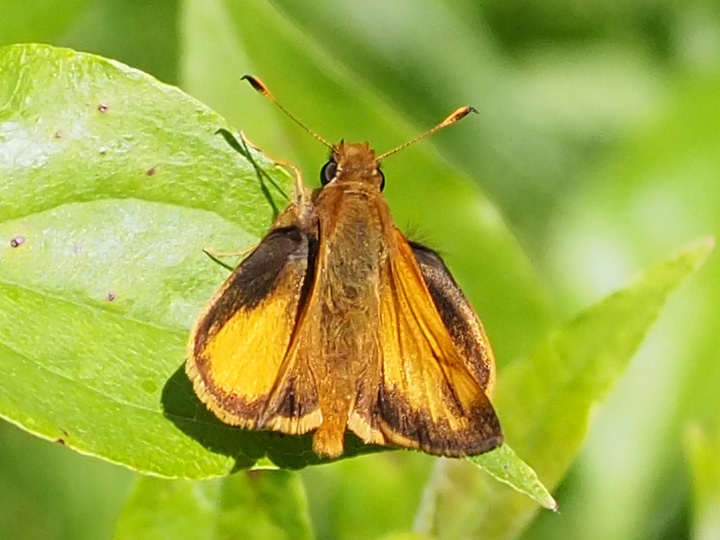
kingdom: Animalia
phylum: Arthropoda
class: Insecta
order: Lepidoptera
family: Hesperiidae
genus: Lon
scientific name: Lon zabulon
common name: Zabulon skipper
